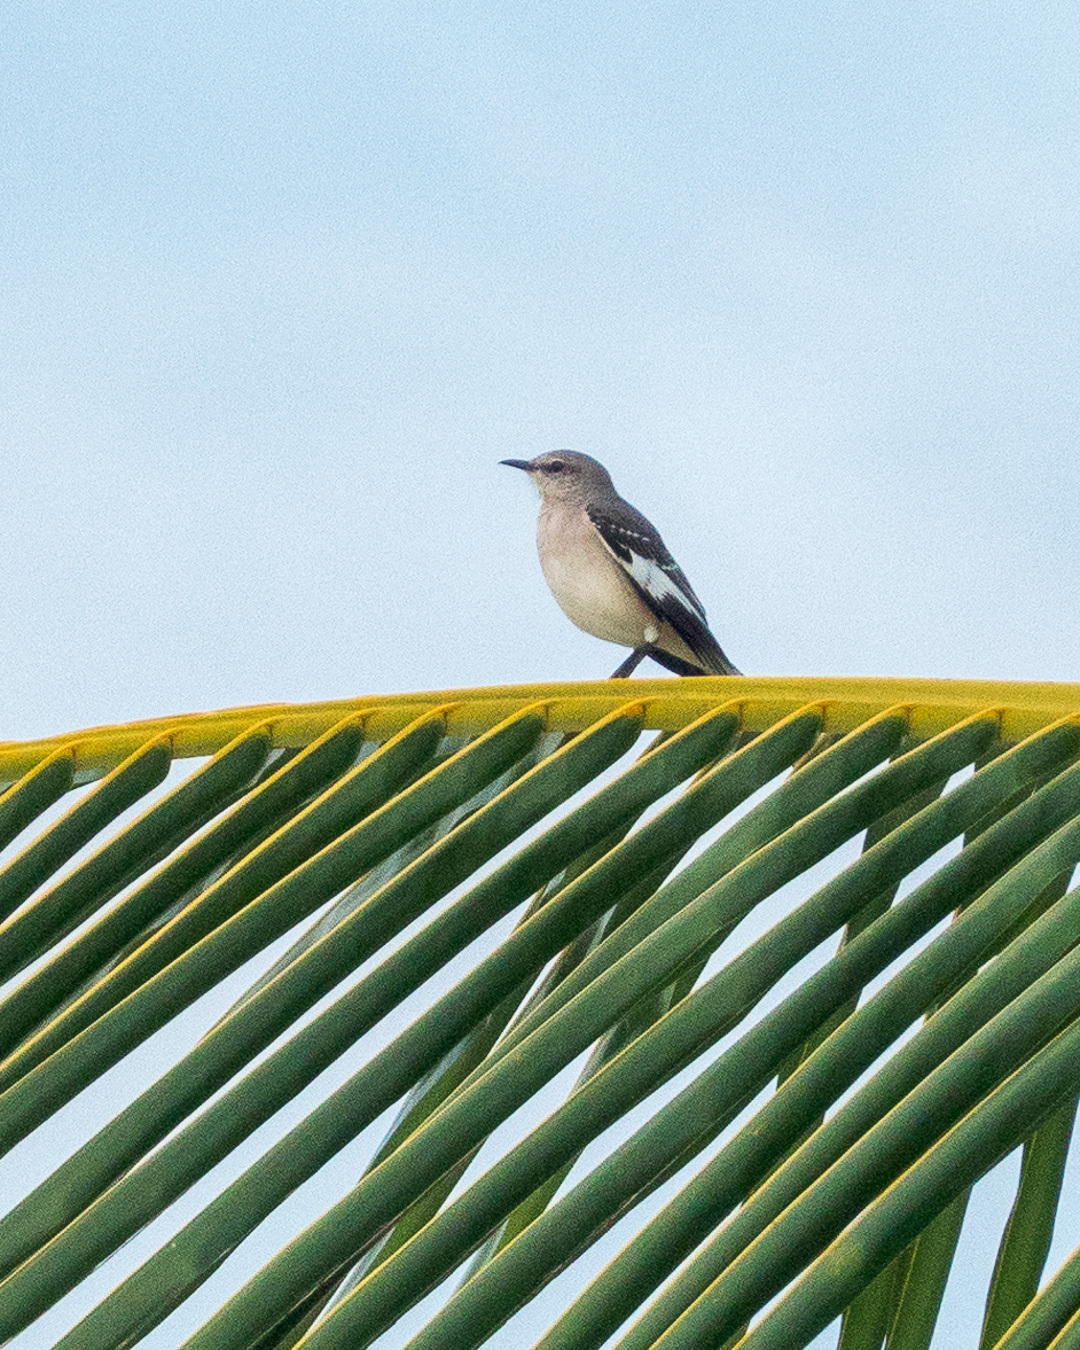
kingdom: Animalia
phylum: Chordata
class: Aves
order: Passeriformes
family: Mimidae
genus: Mimus
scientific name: Mimus polyglottos
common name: Northern mockingbird
